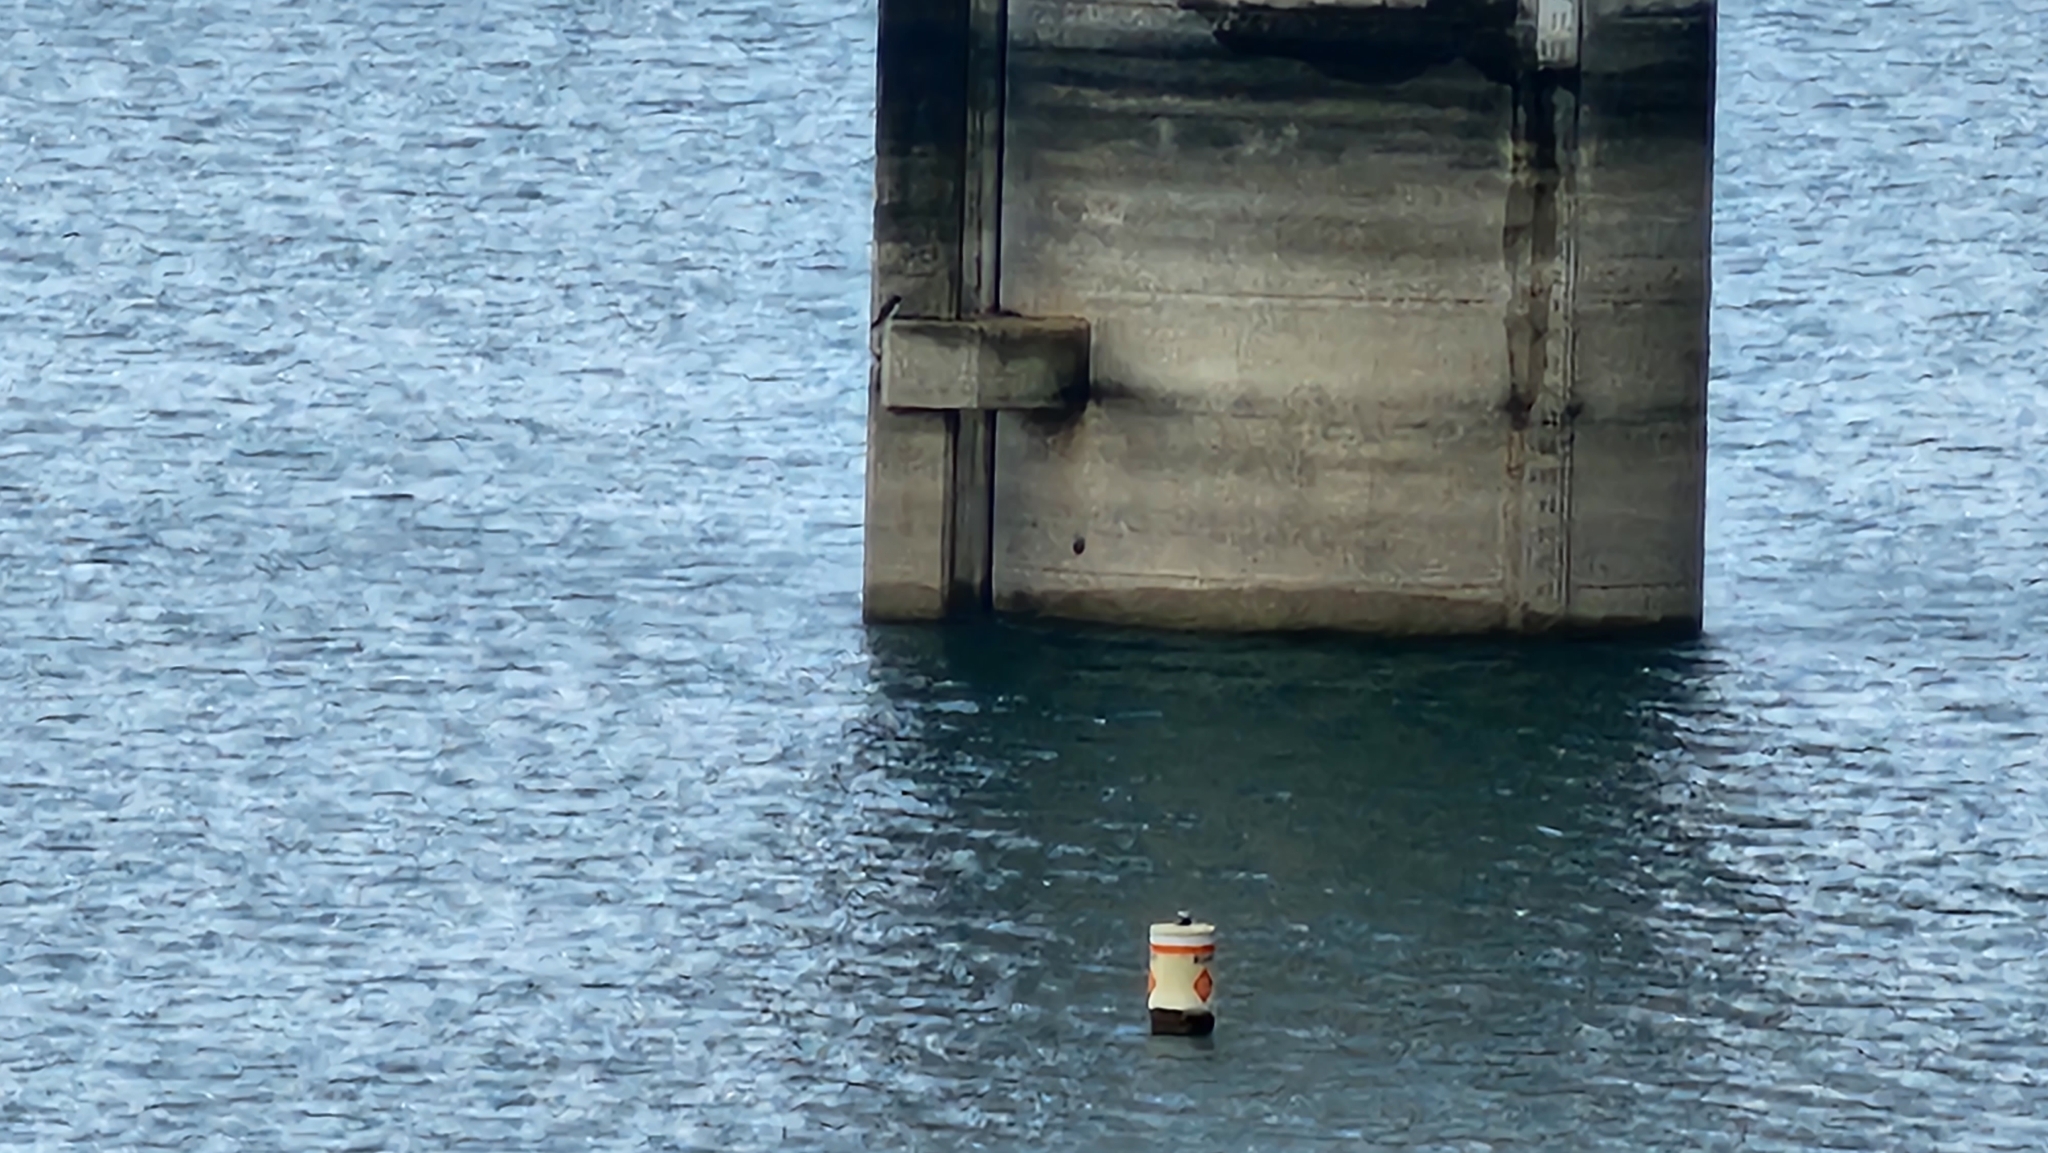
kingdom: Animalia
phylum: Chordata
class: Aves
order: Suliformes
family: Sulidae
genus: Sula
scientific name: Sula leucogaster
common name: Brown booby
